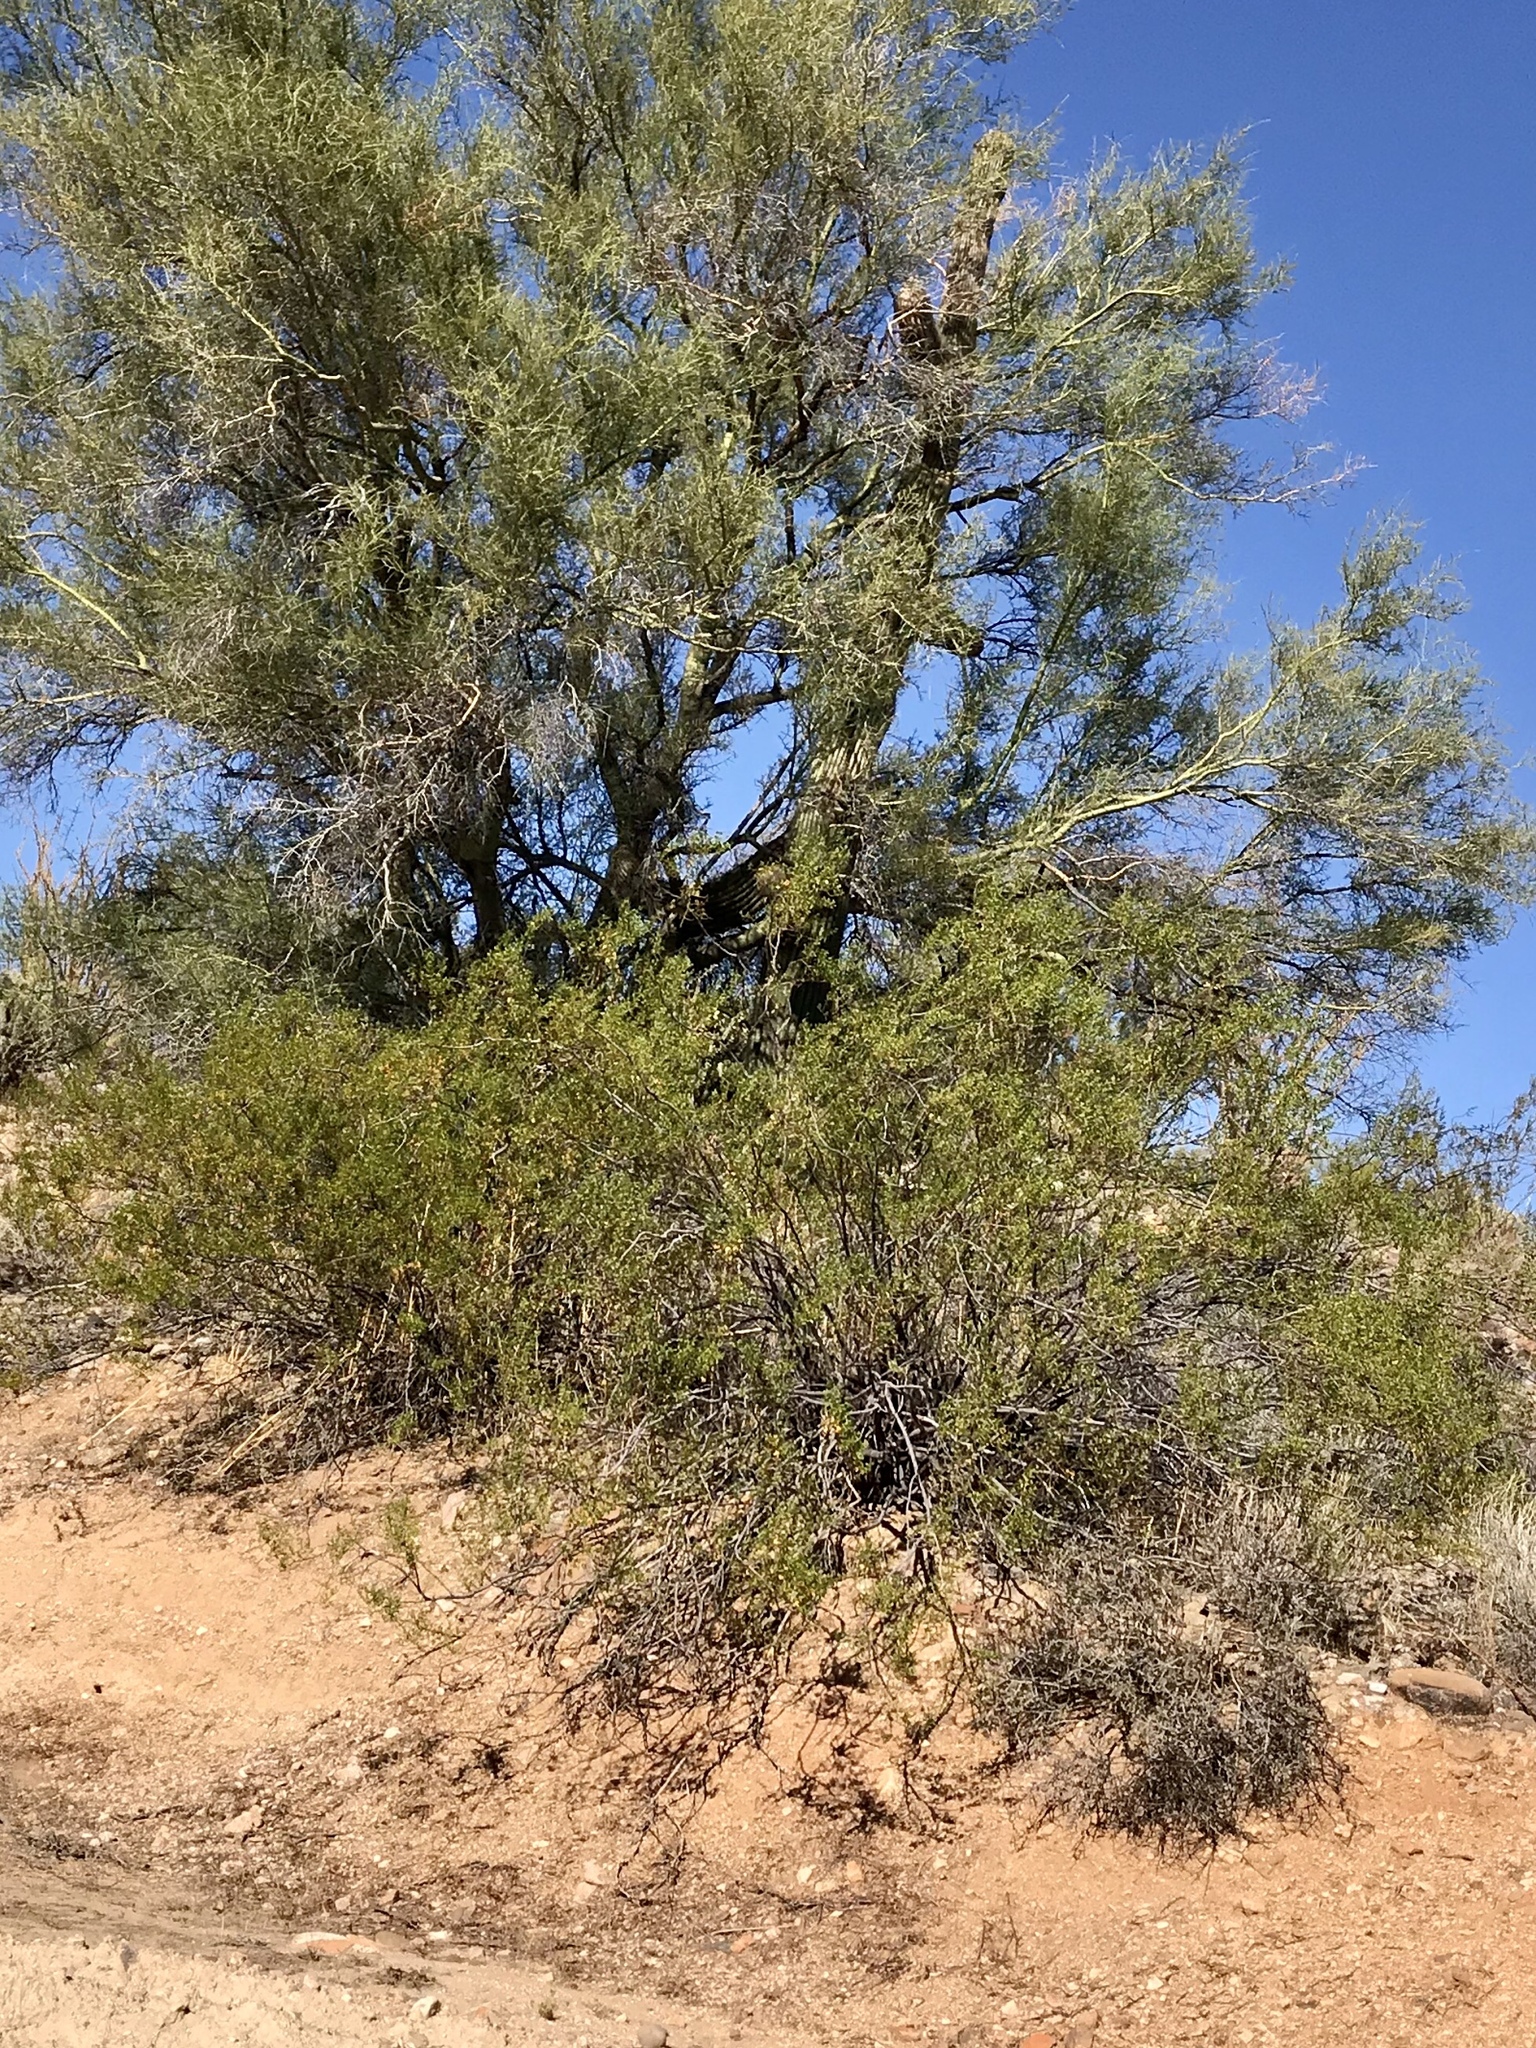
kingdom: Plantae
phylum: Tracheophyta
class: Magnoliopsida
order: Zygophyllales
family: Zygophyllaceae
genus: Larrea
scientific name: Larrea tridentata
